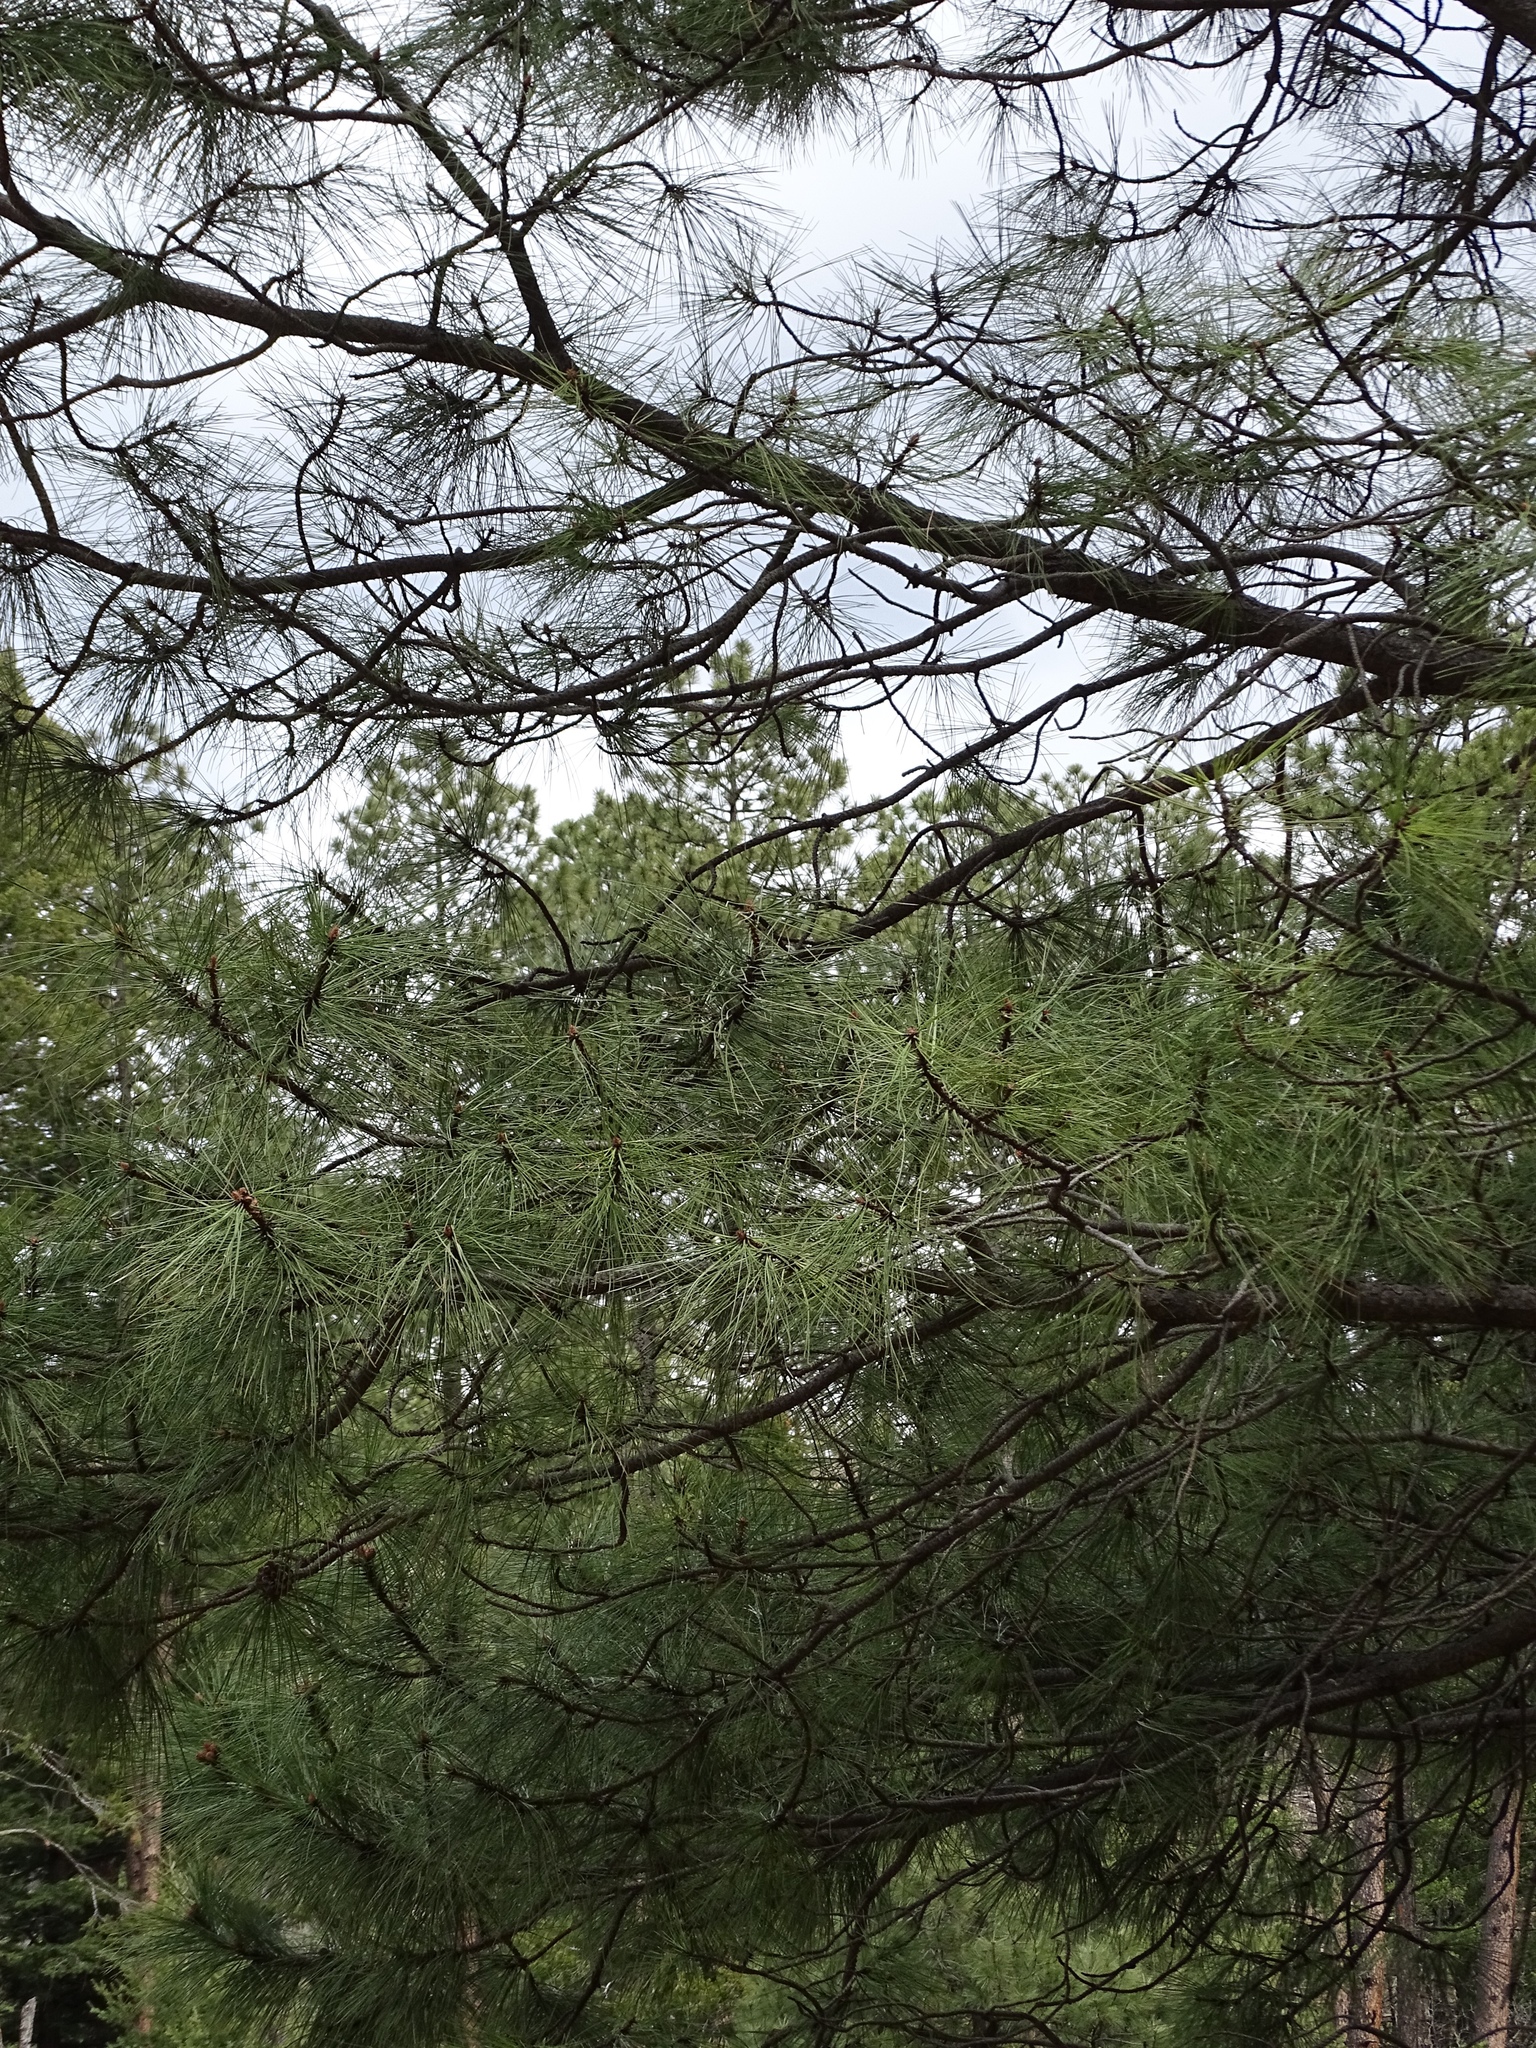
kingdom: Plantae
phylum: Tracheophyta
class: Pinopsida
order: Pinales
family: Pinaceae
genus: Pinus
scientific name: Pinus ponderosa
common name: Western yellow-pine
